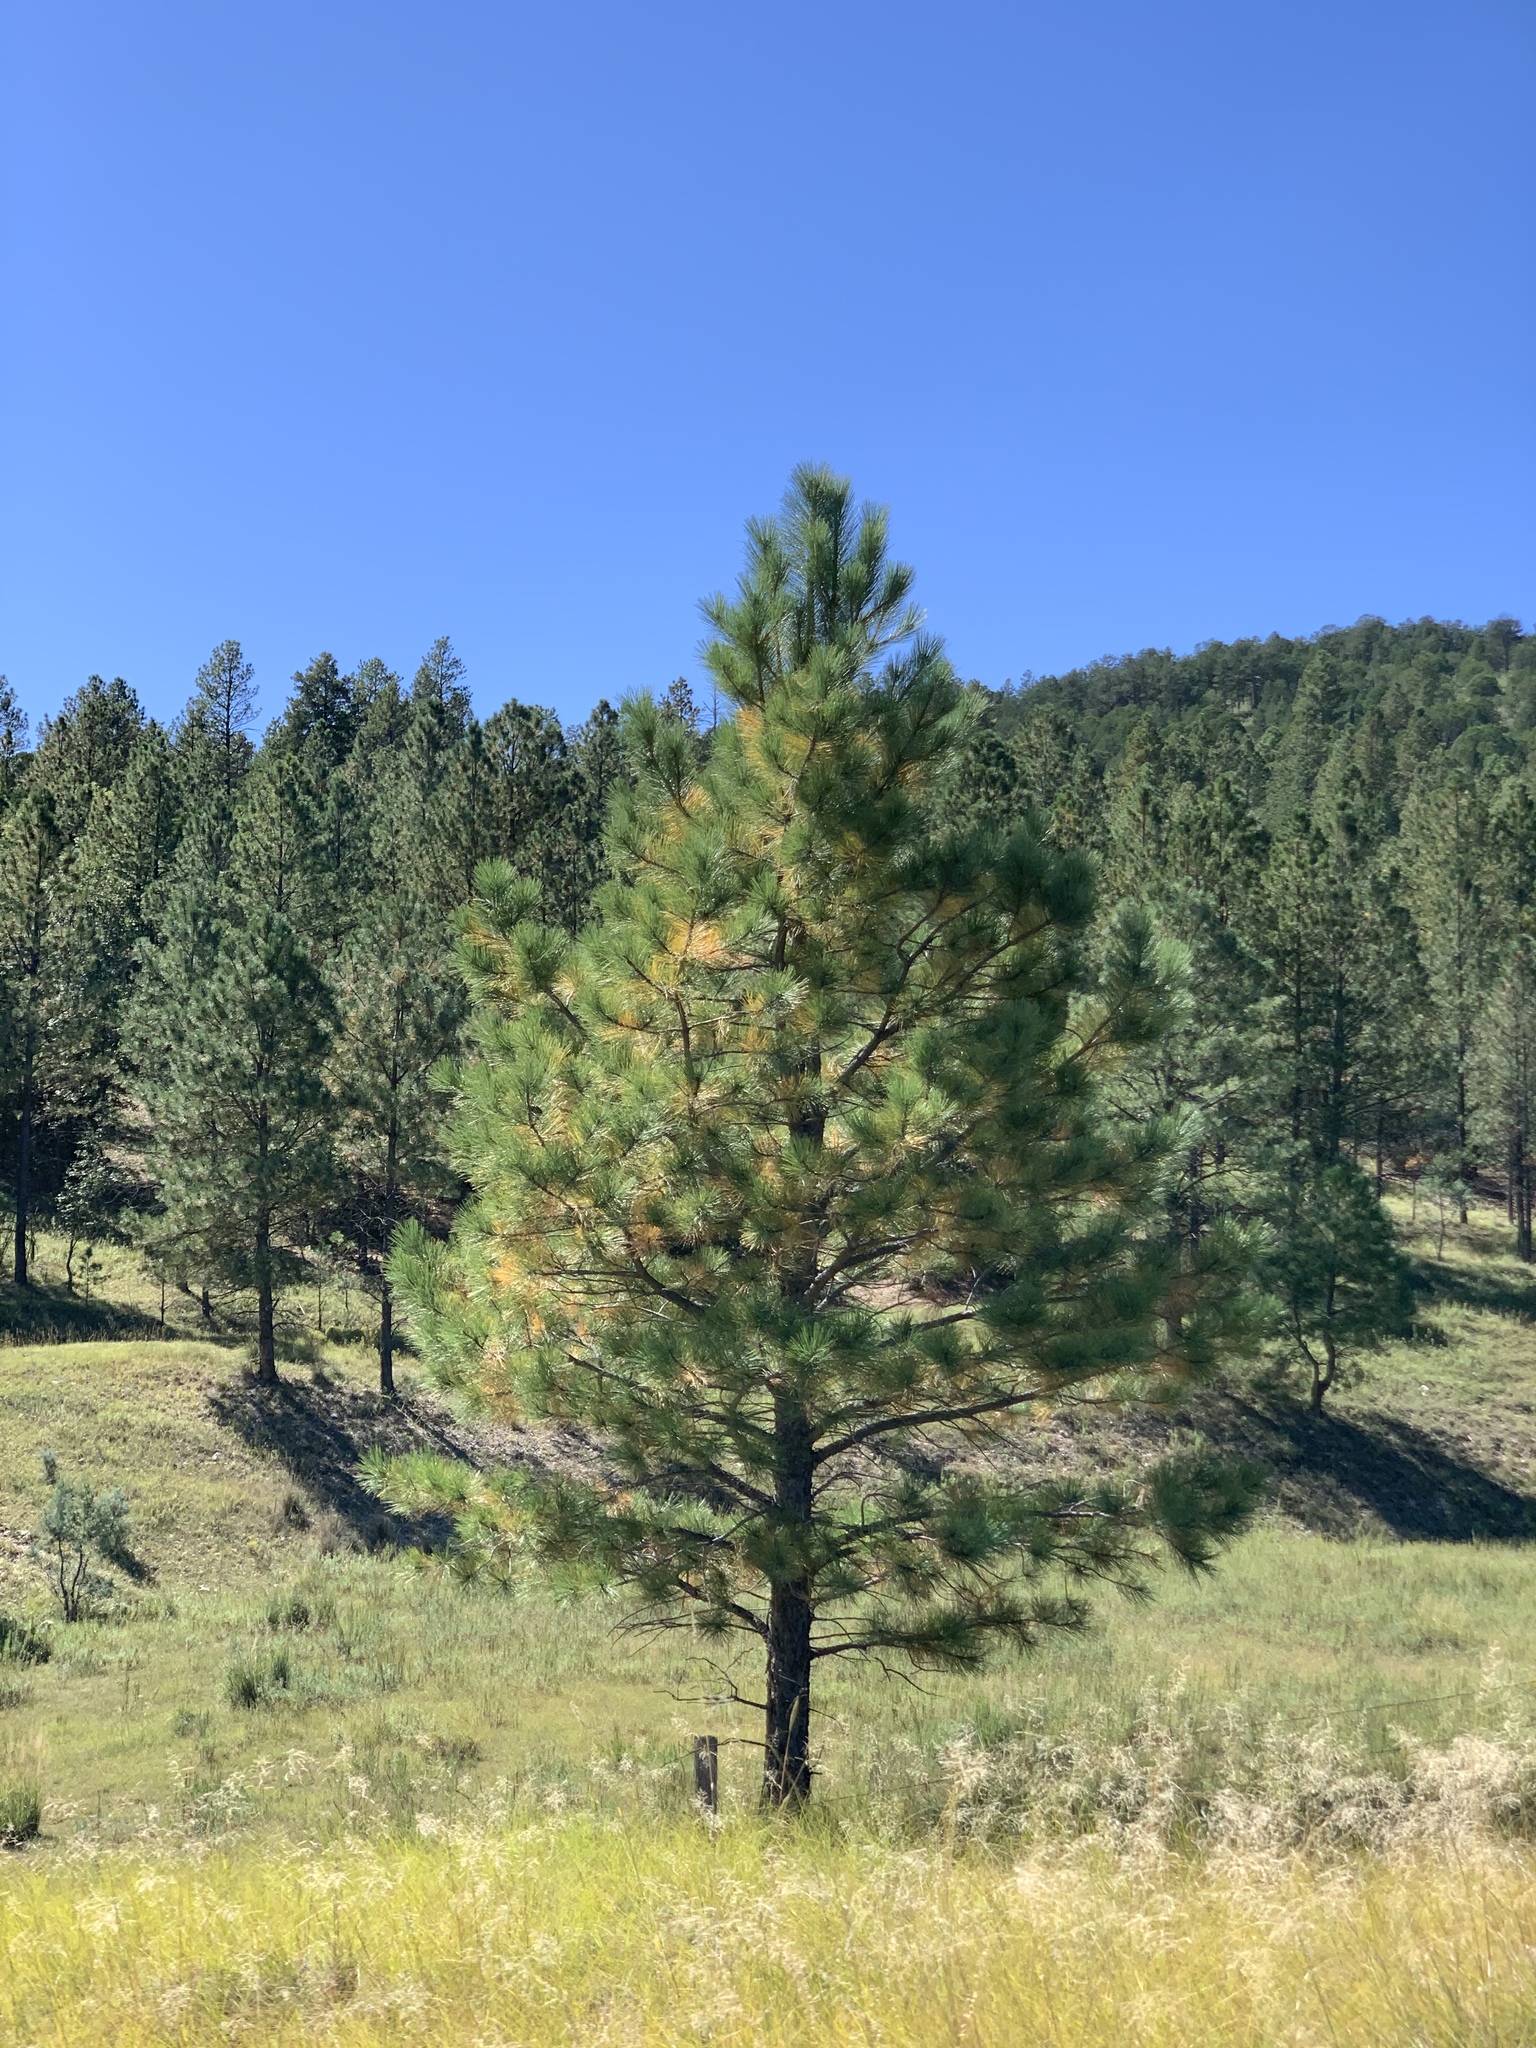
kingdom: Plantae
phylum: Tracheophyta
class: Pinopsida
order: Pinales
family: Pinaceae
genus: Pinus
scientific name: Pinus ponderosa
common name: Western yellow-pine
